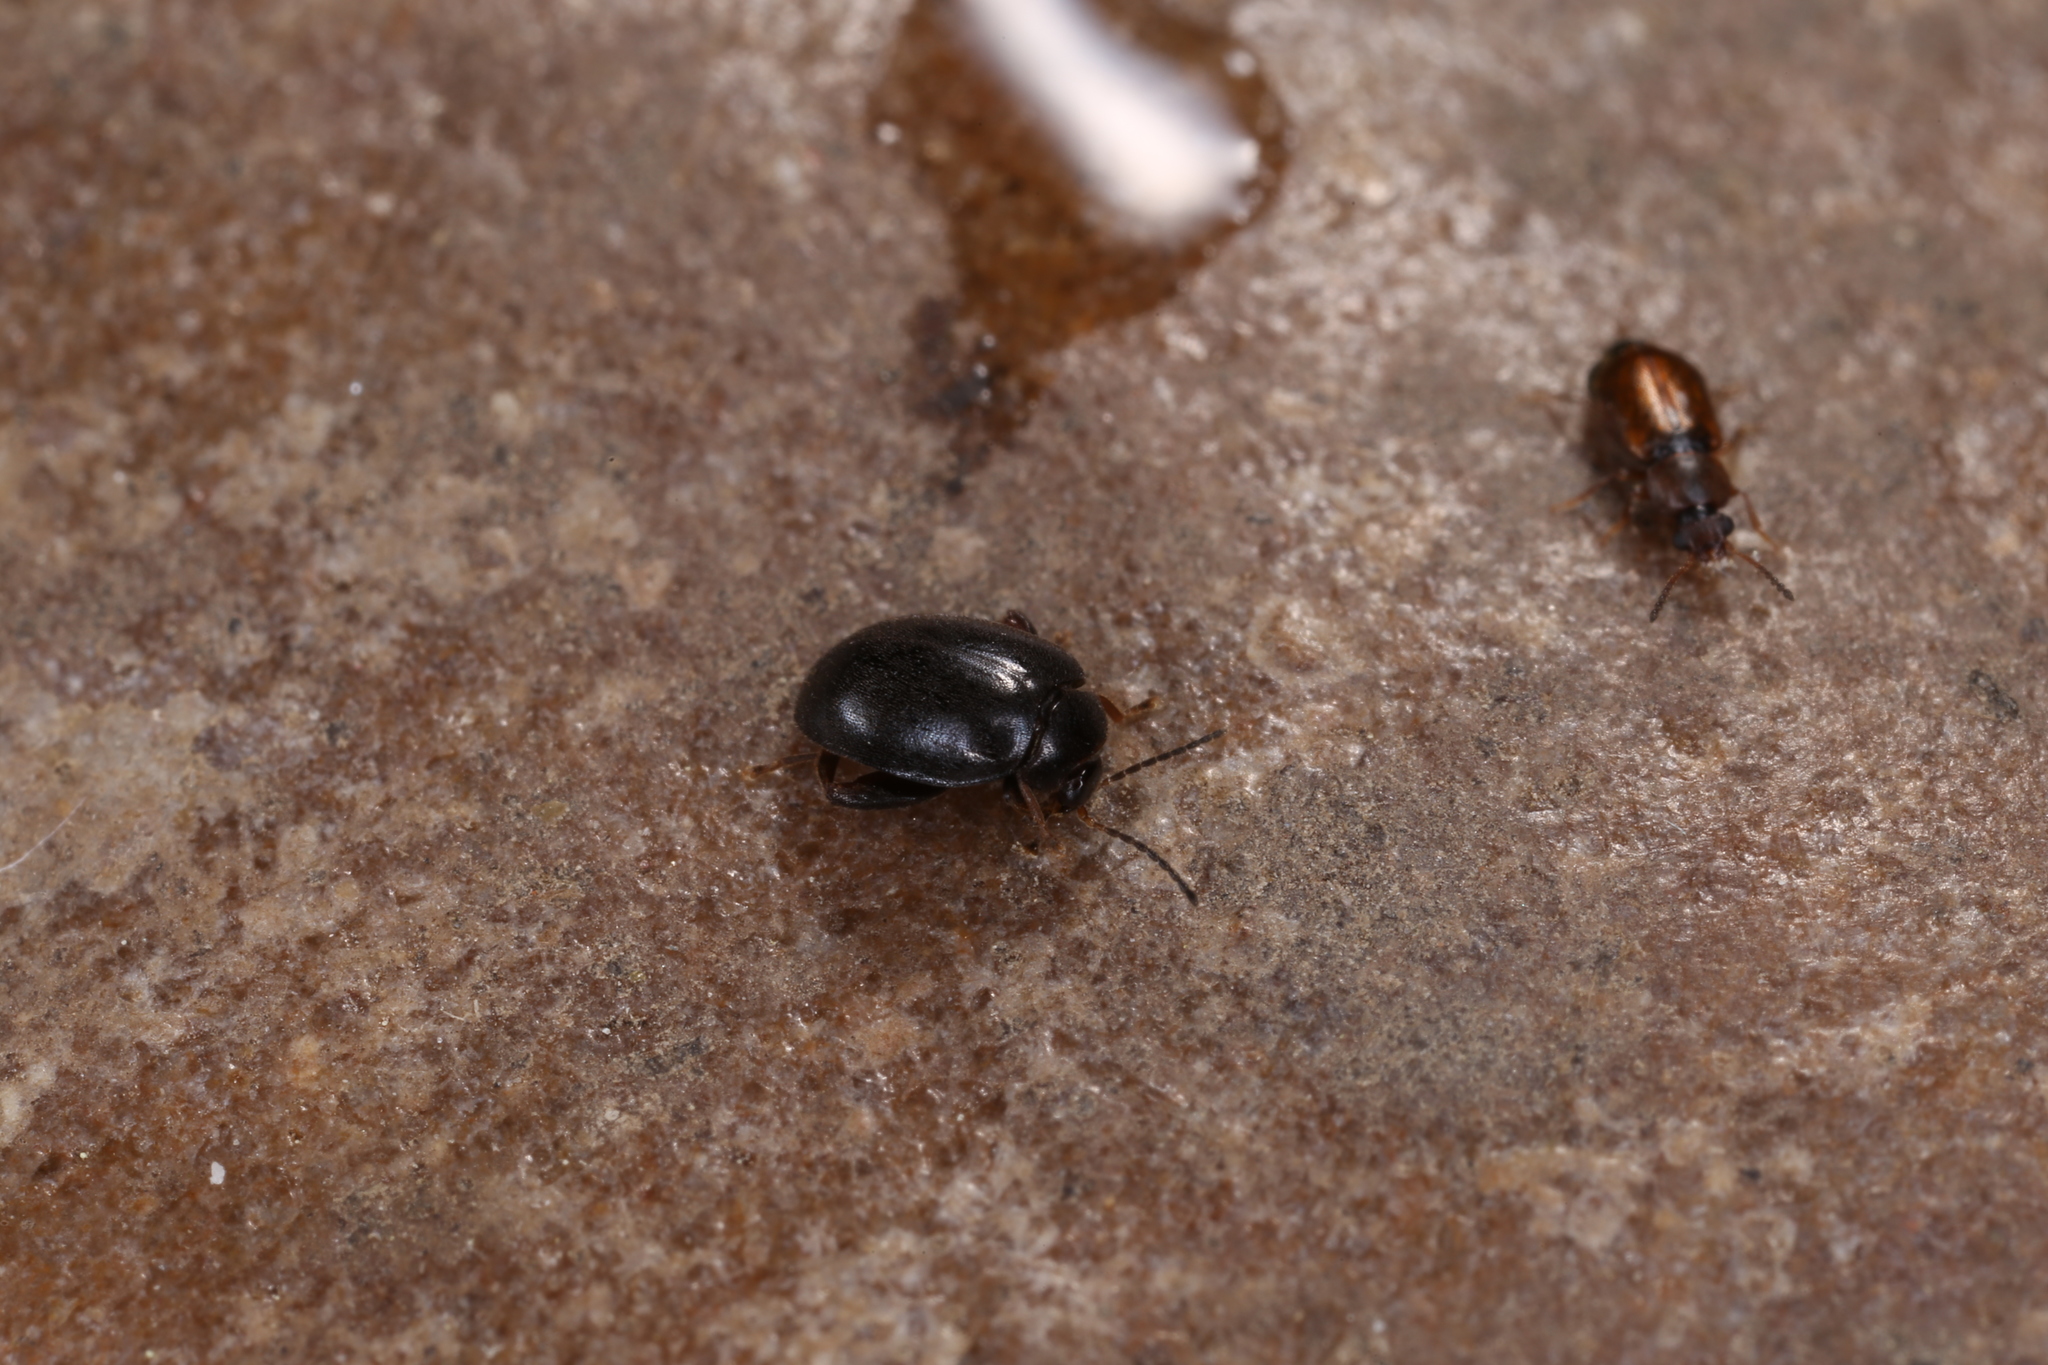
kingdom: Animalia
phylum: Arthropoda
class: Insecta
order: Coleoptera
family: Staphylinidae
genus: Eusphalerum
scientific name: Eusphalerum torquatum
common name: Staph beetle
